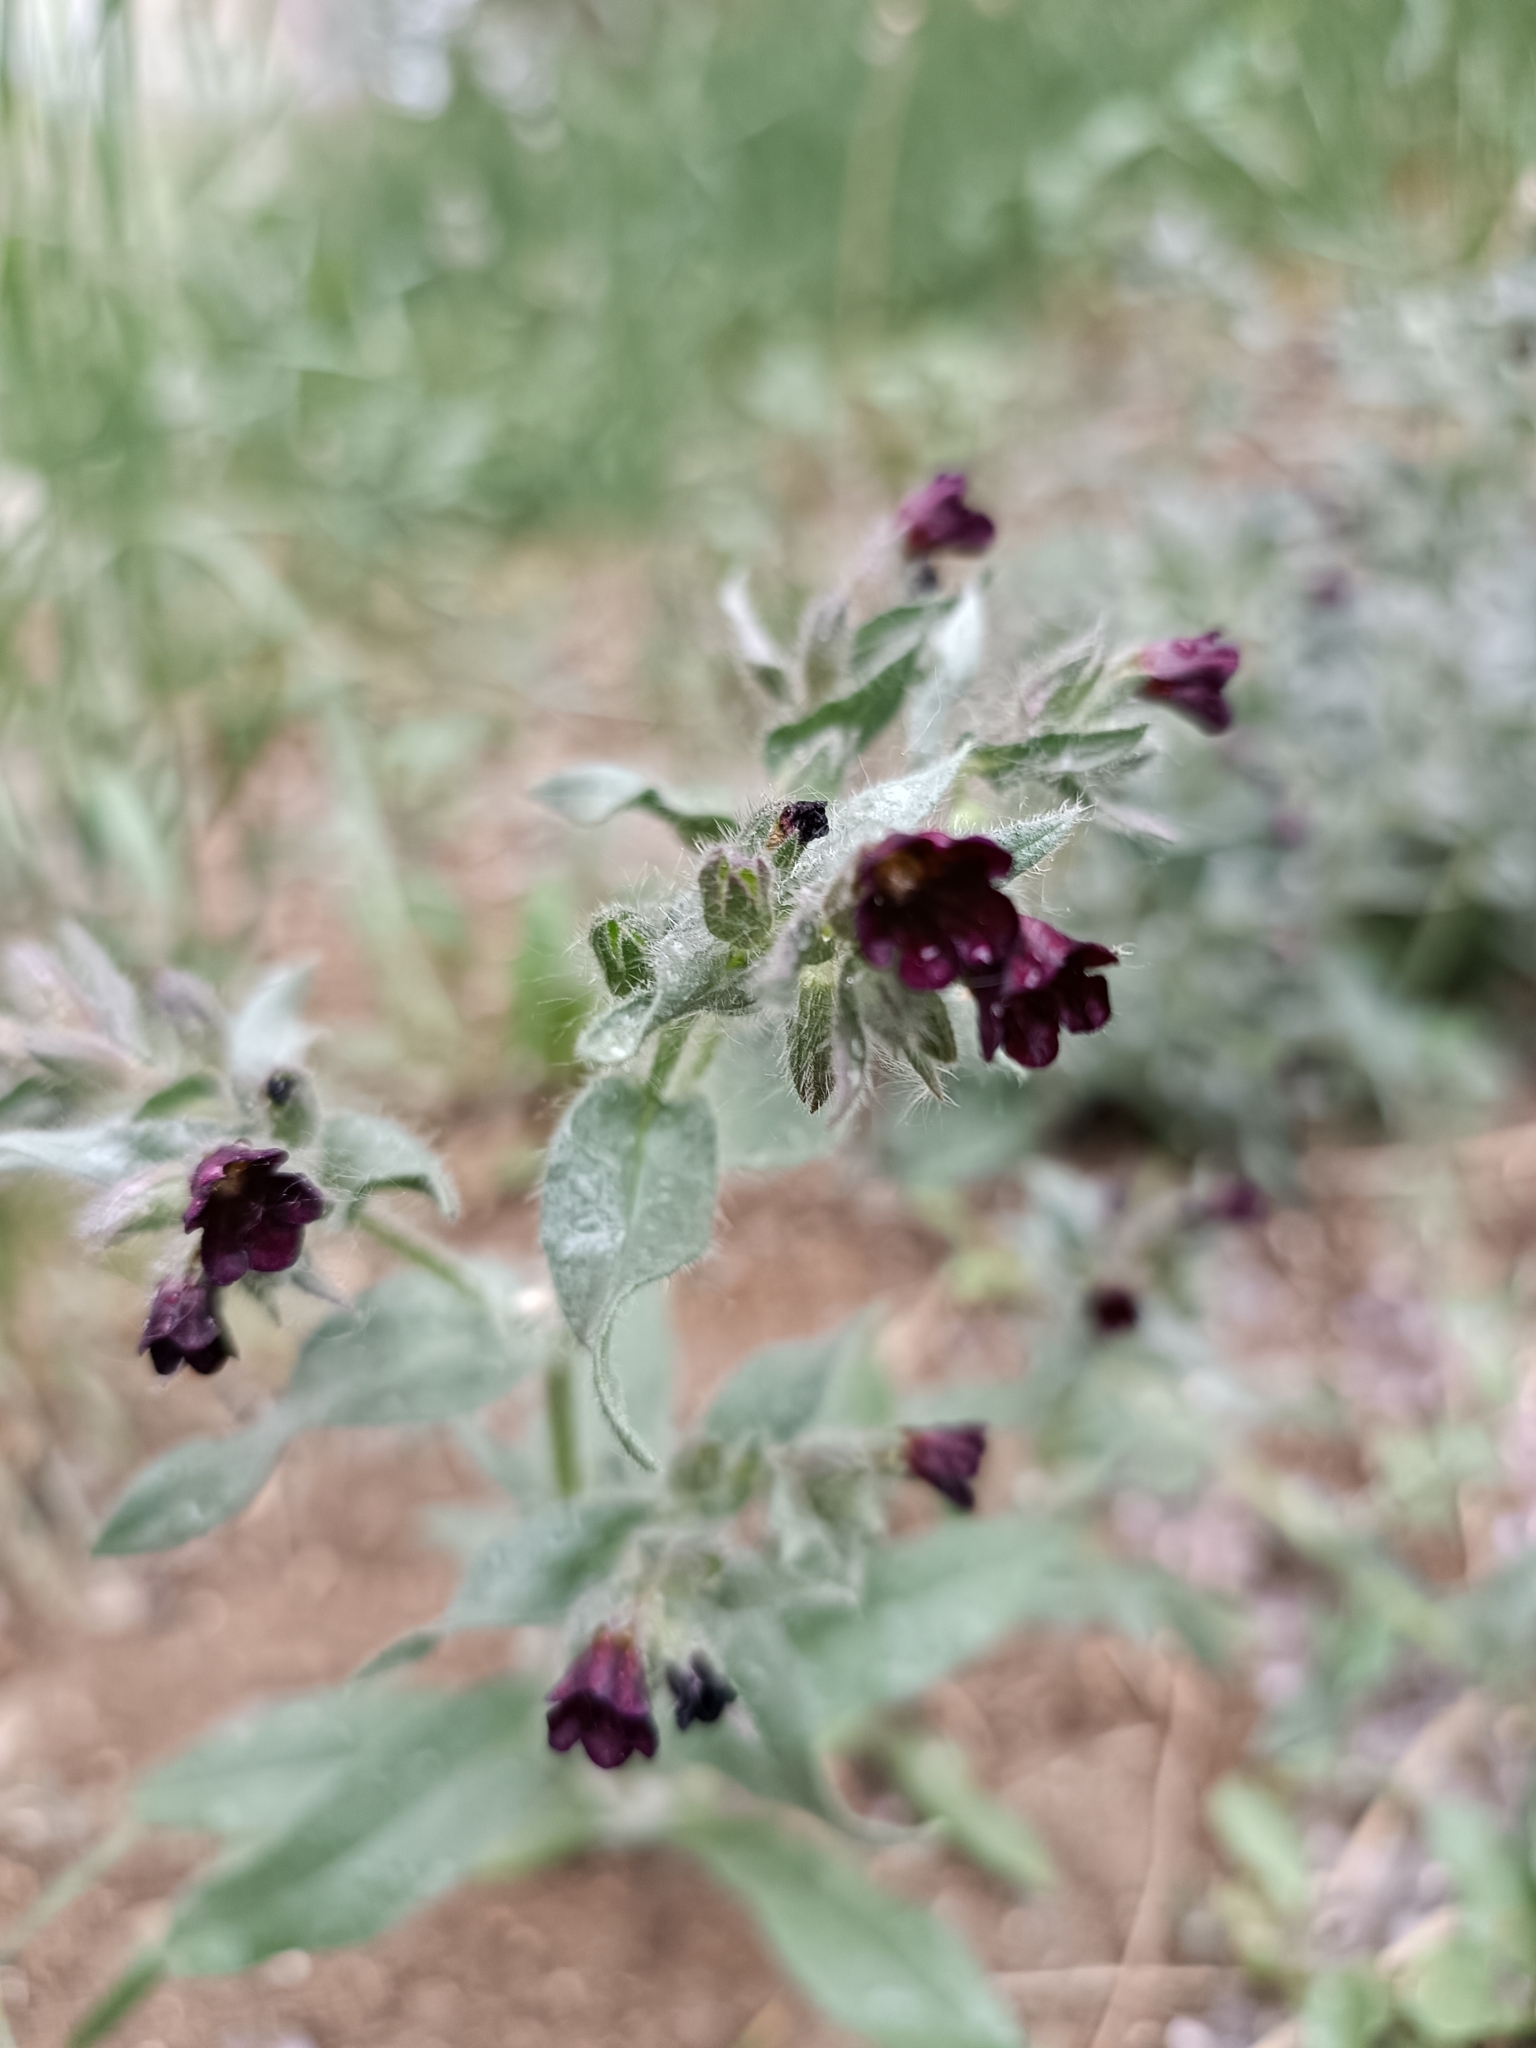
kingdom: Plantae
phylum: Tracheophyta
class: Magnoliopsida
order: Boraginales
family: Boraginaceae
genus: Nonea
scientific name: Nonea pulla
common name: Brown nonea
